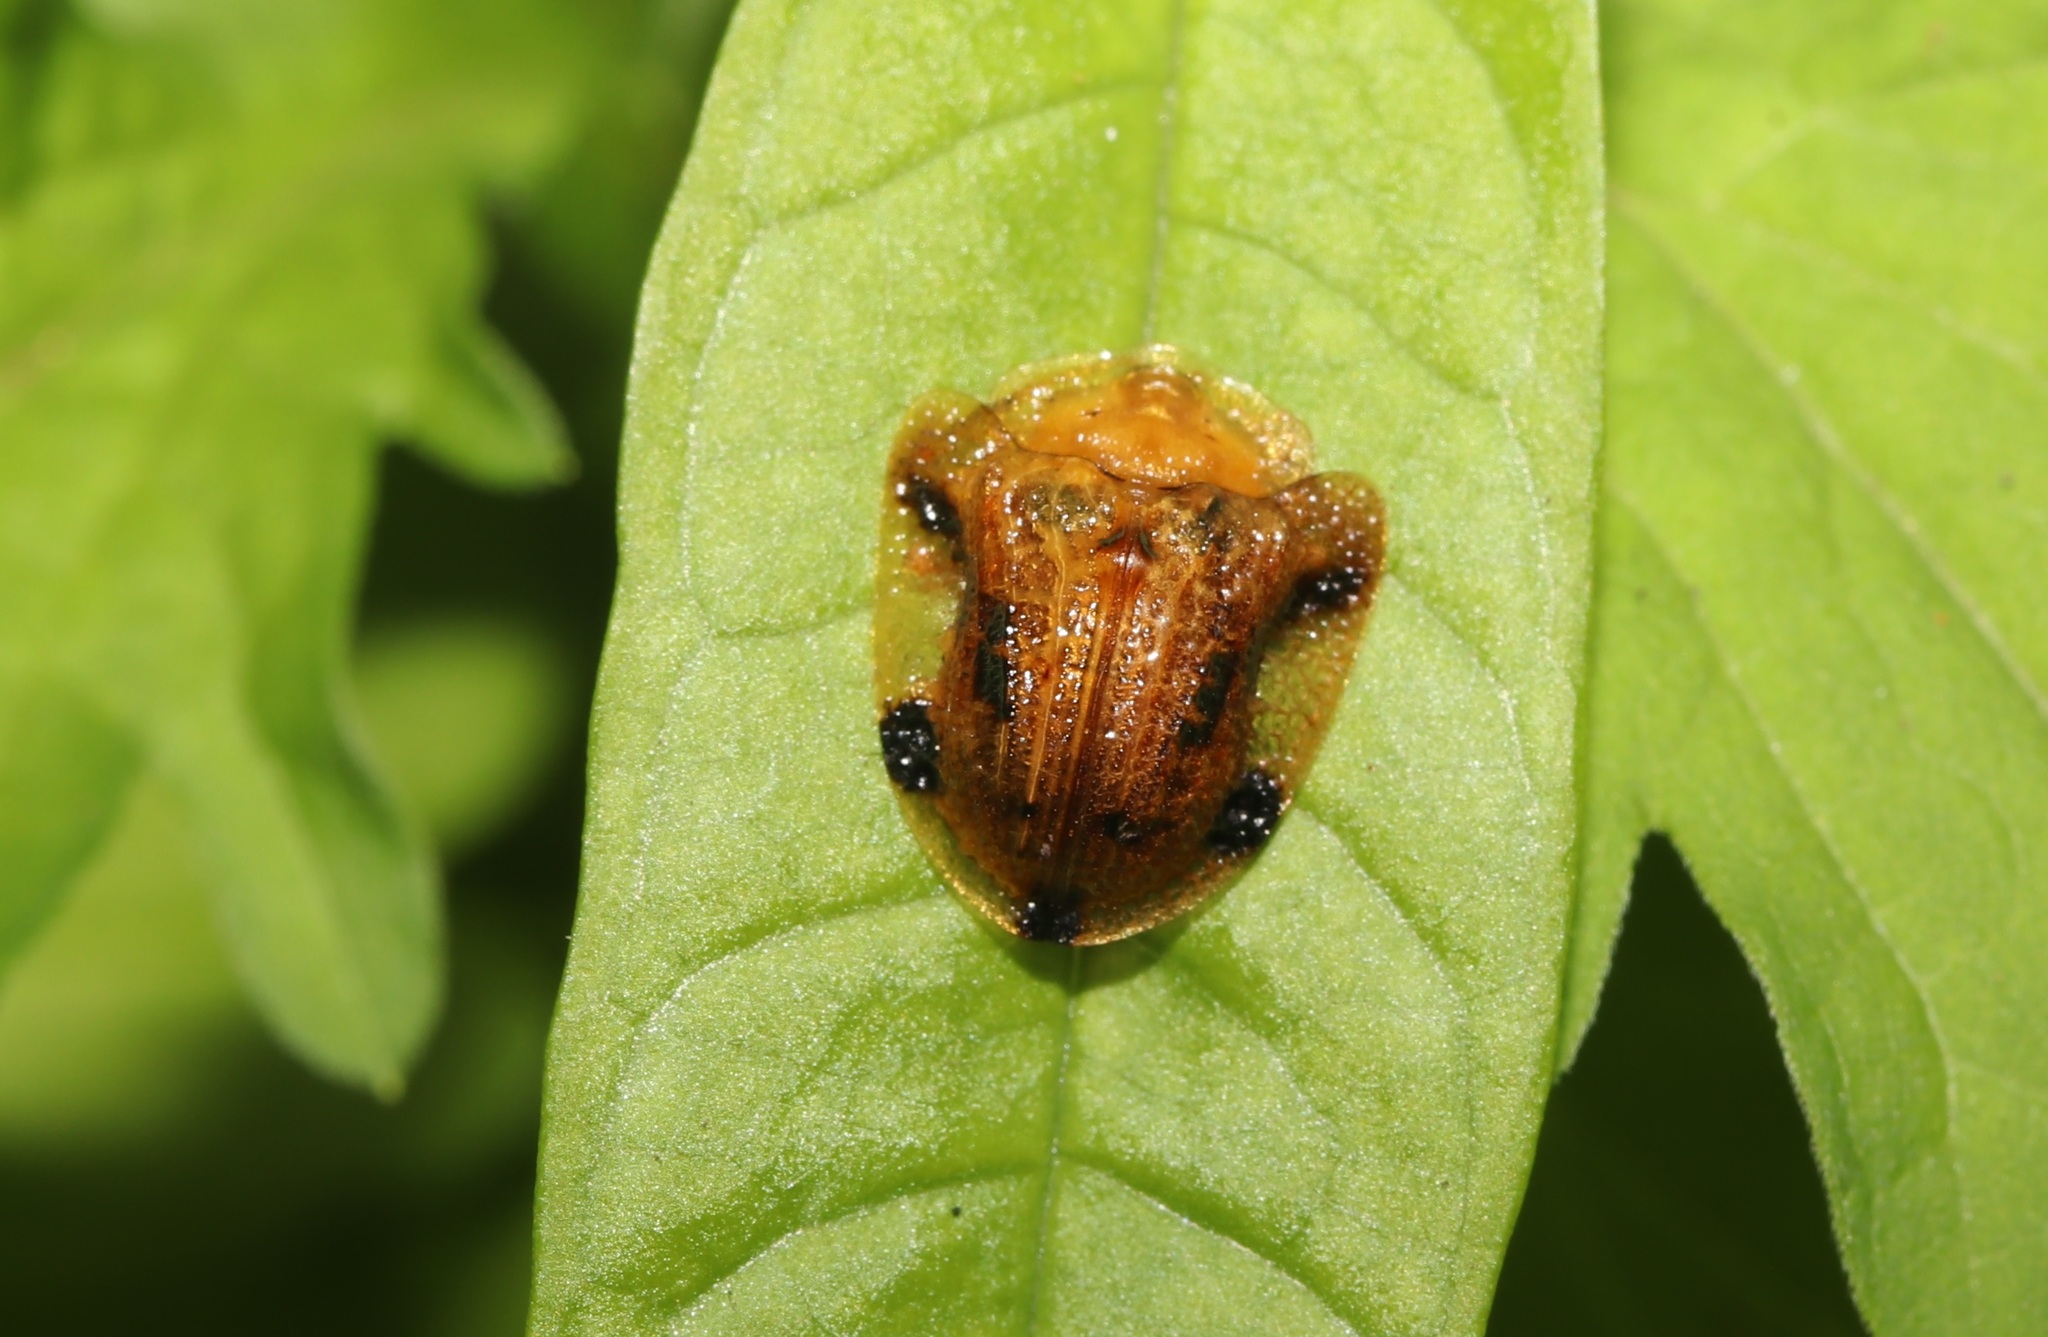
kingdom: Animalia
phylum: Arthropoda
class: Insecta
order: Coleoptera
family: Chrysomelidae
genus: Laccoptera
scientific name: Laccoptera nepalensis
